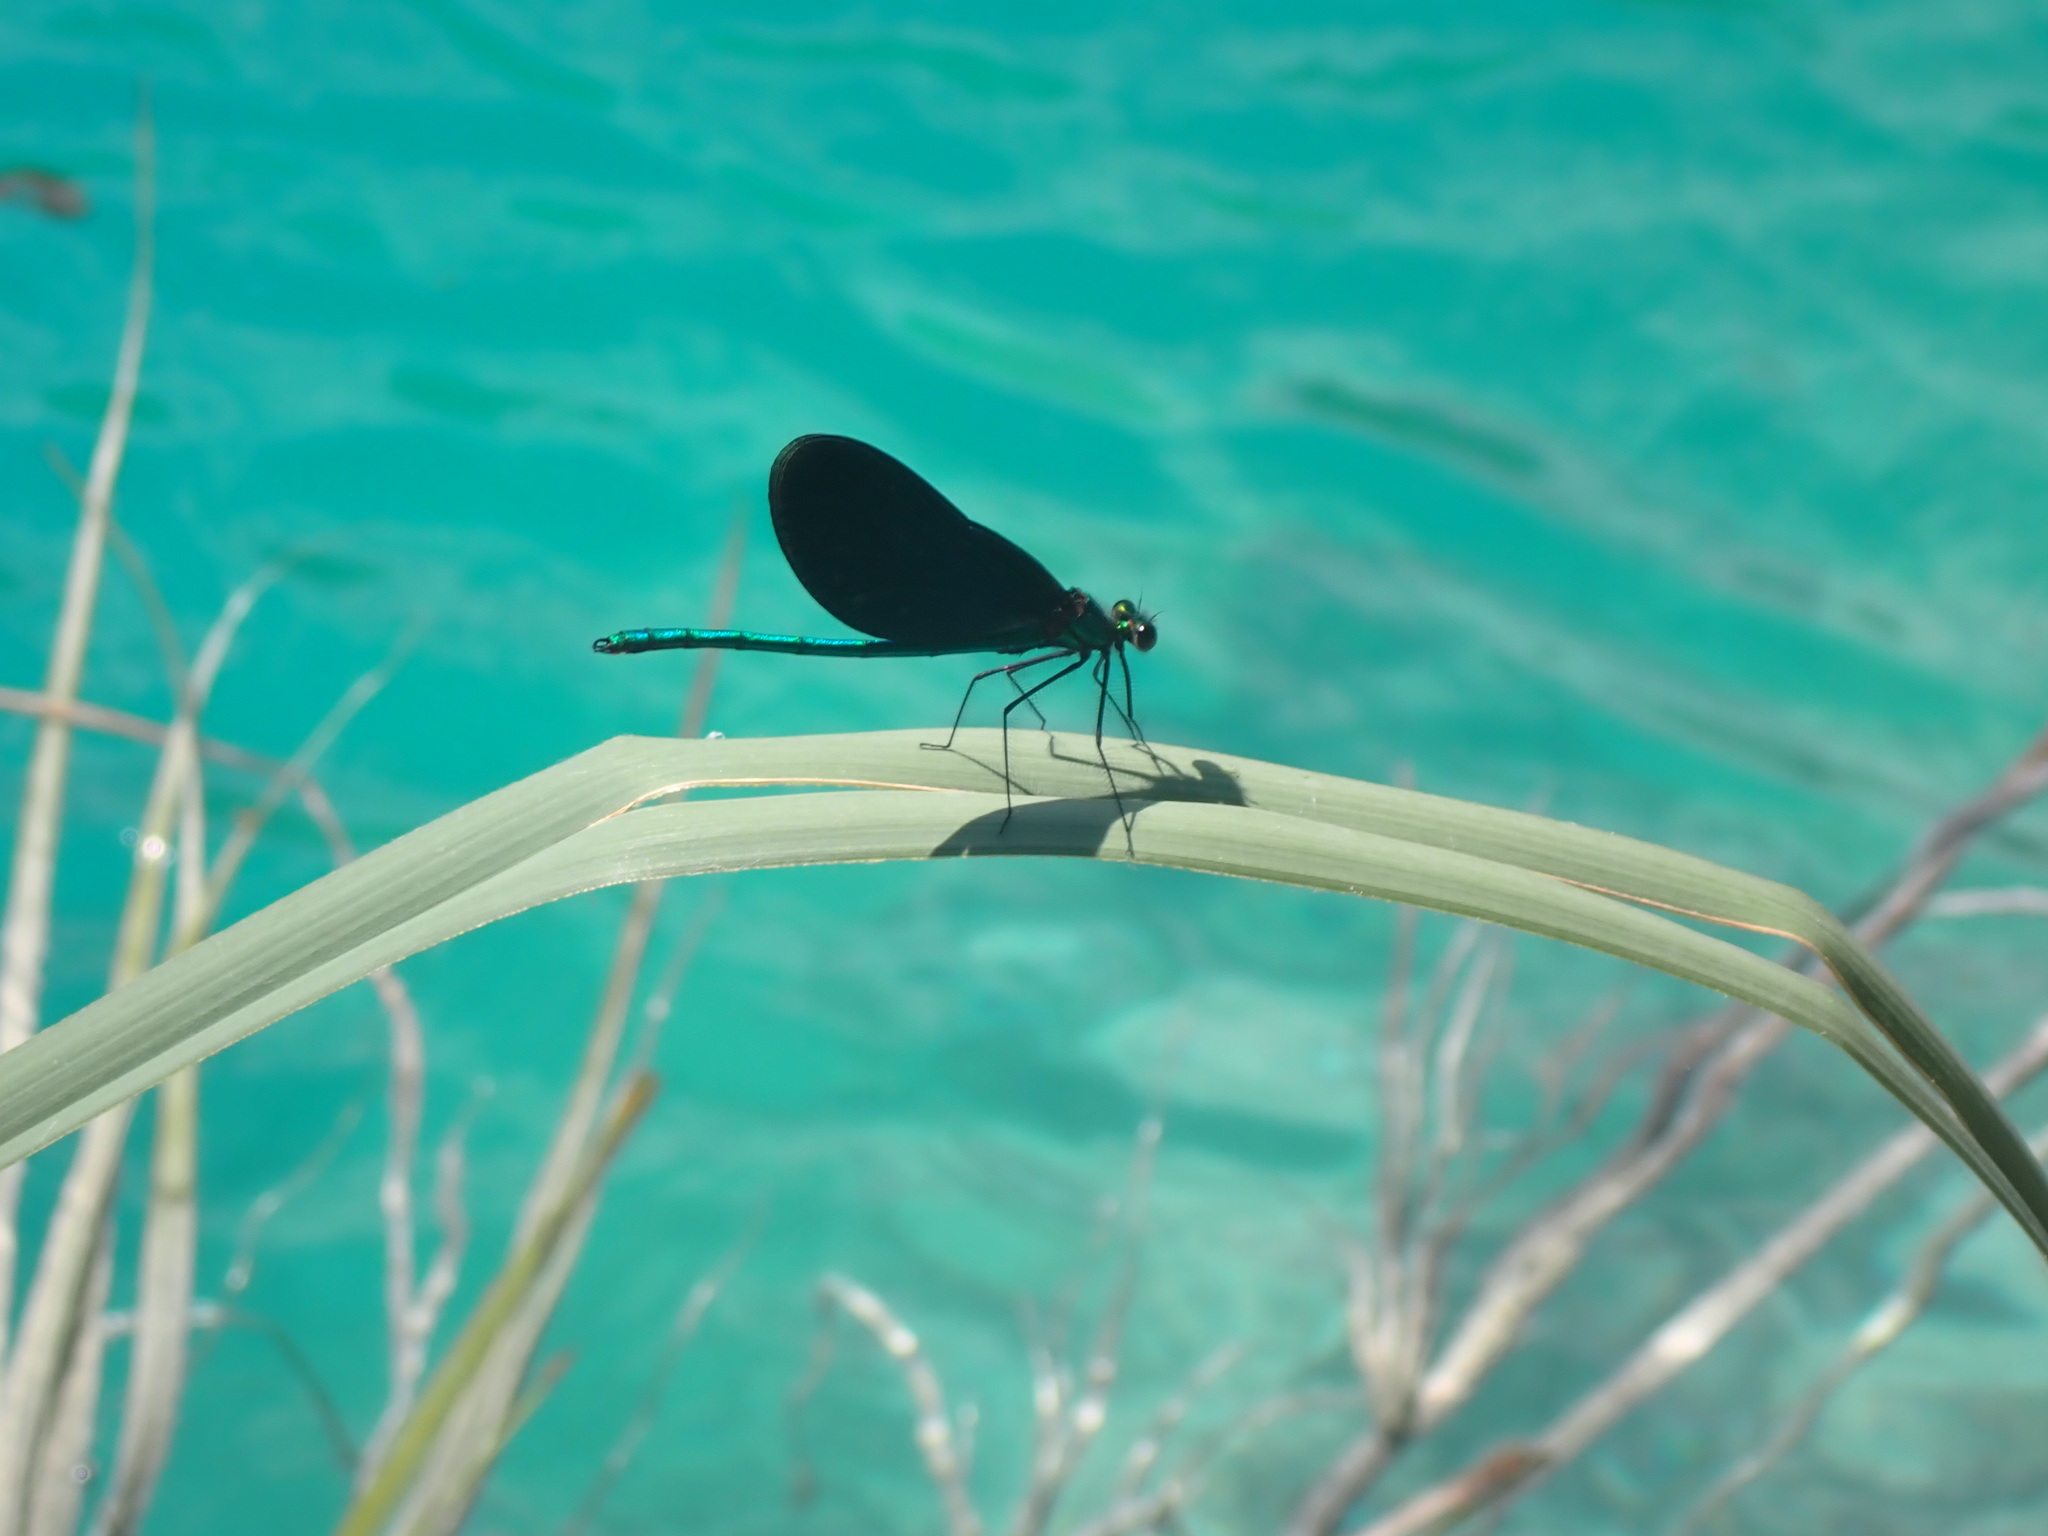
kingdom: Animalia
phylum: Arthropoda
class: Insecta
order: Odonata
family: Calopterygidae
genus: Calopteryx
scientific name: Calopteryx virgo
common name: Beautiful demoiselle
